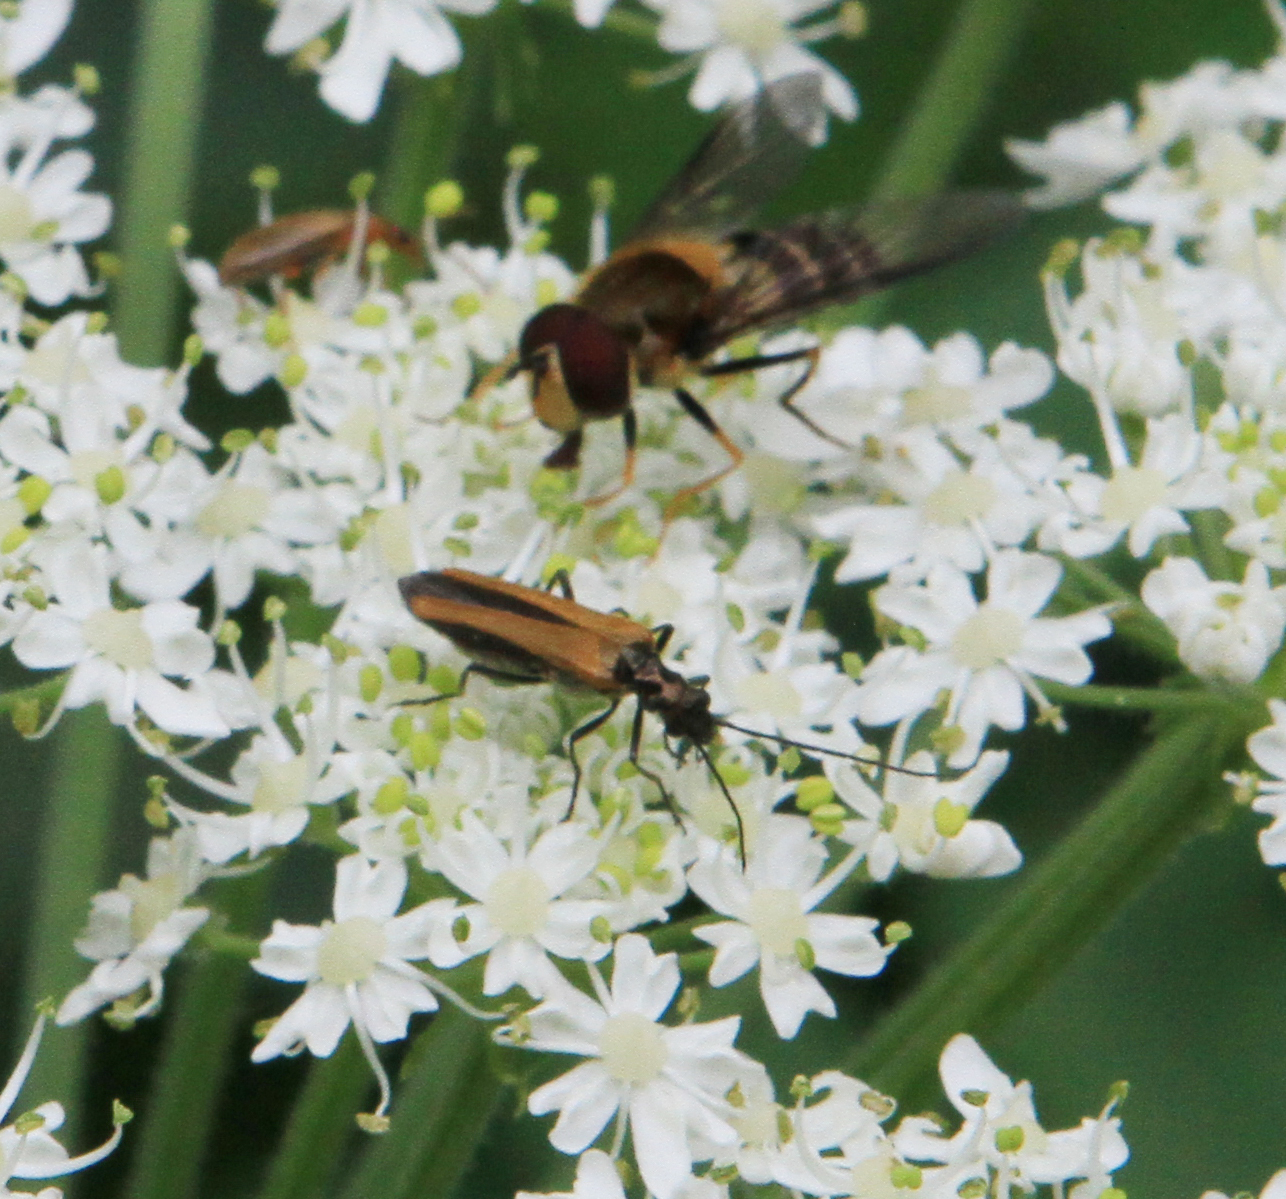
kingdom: Animalia
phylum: Arthropoda
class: Insecta
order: Coleoptera
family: Oedemeridae
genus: Oedemera
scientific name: Oedemera femorata
